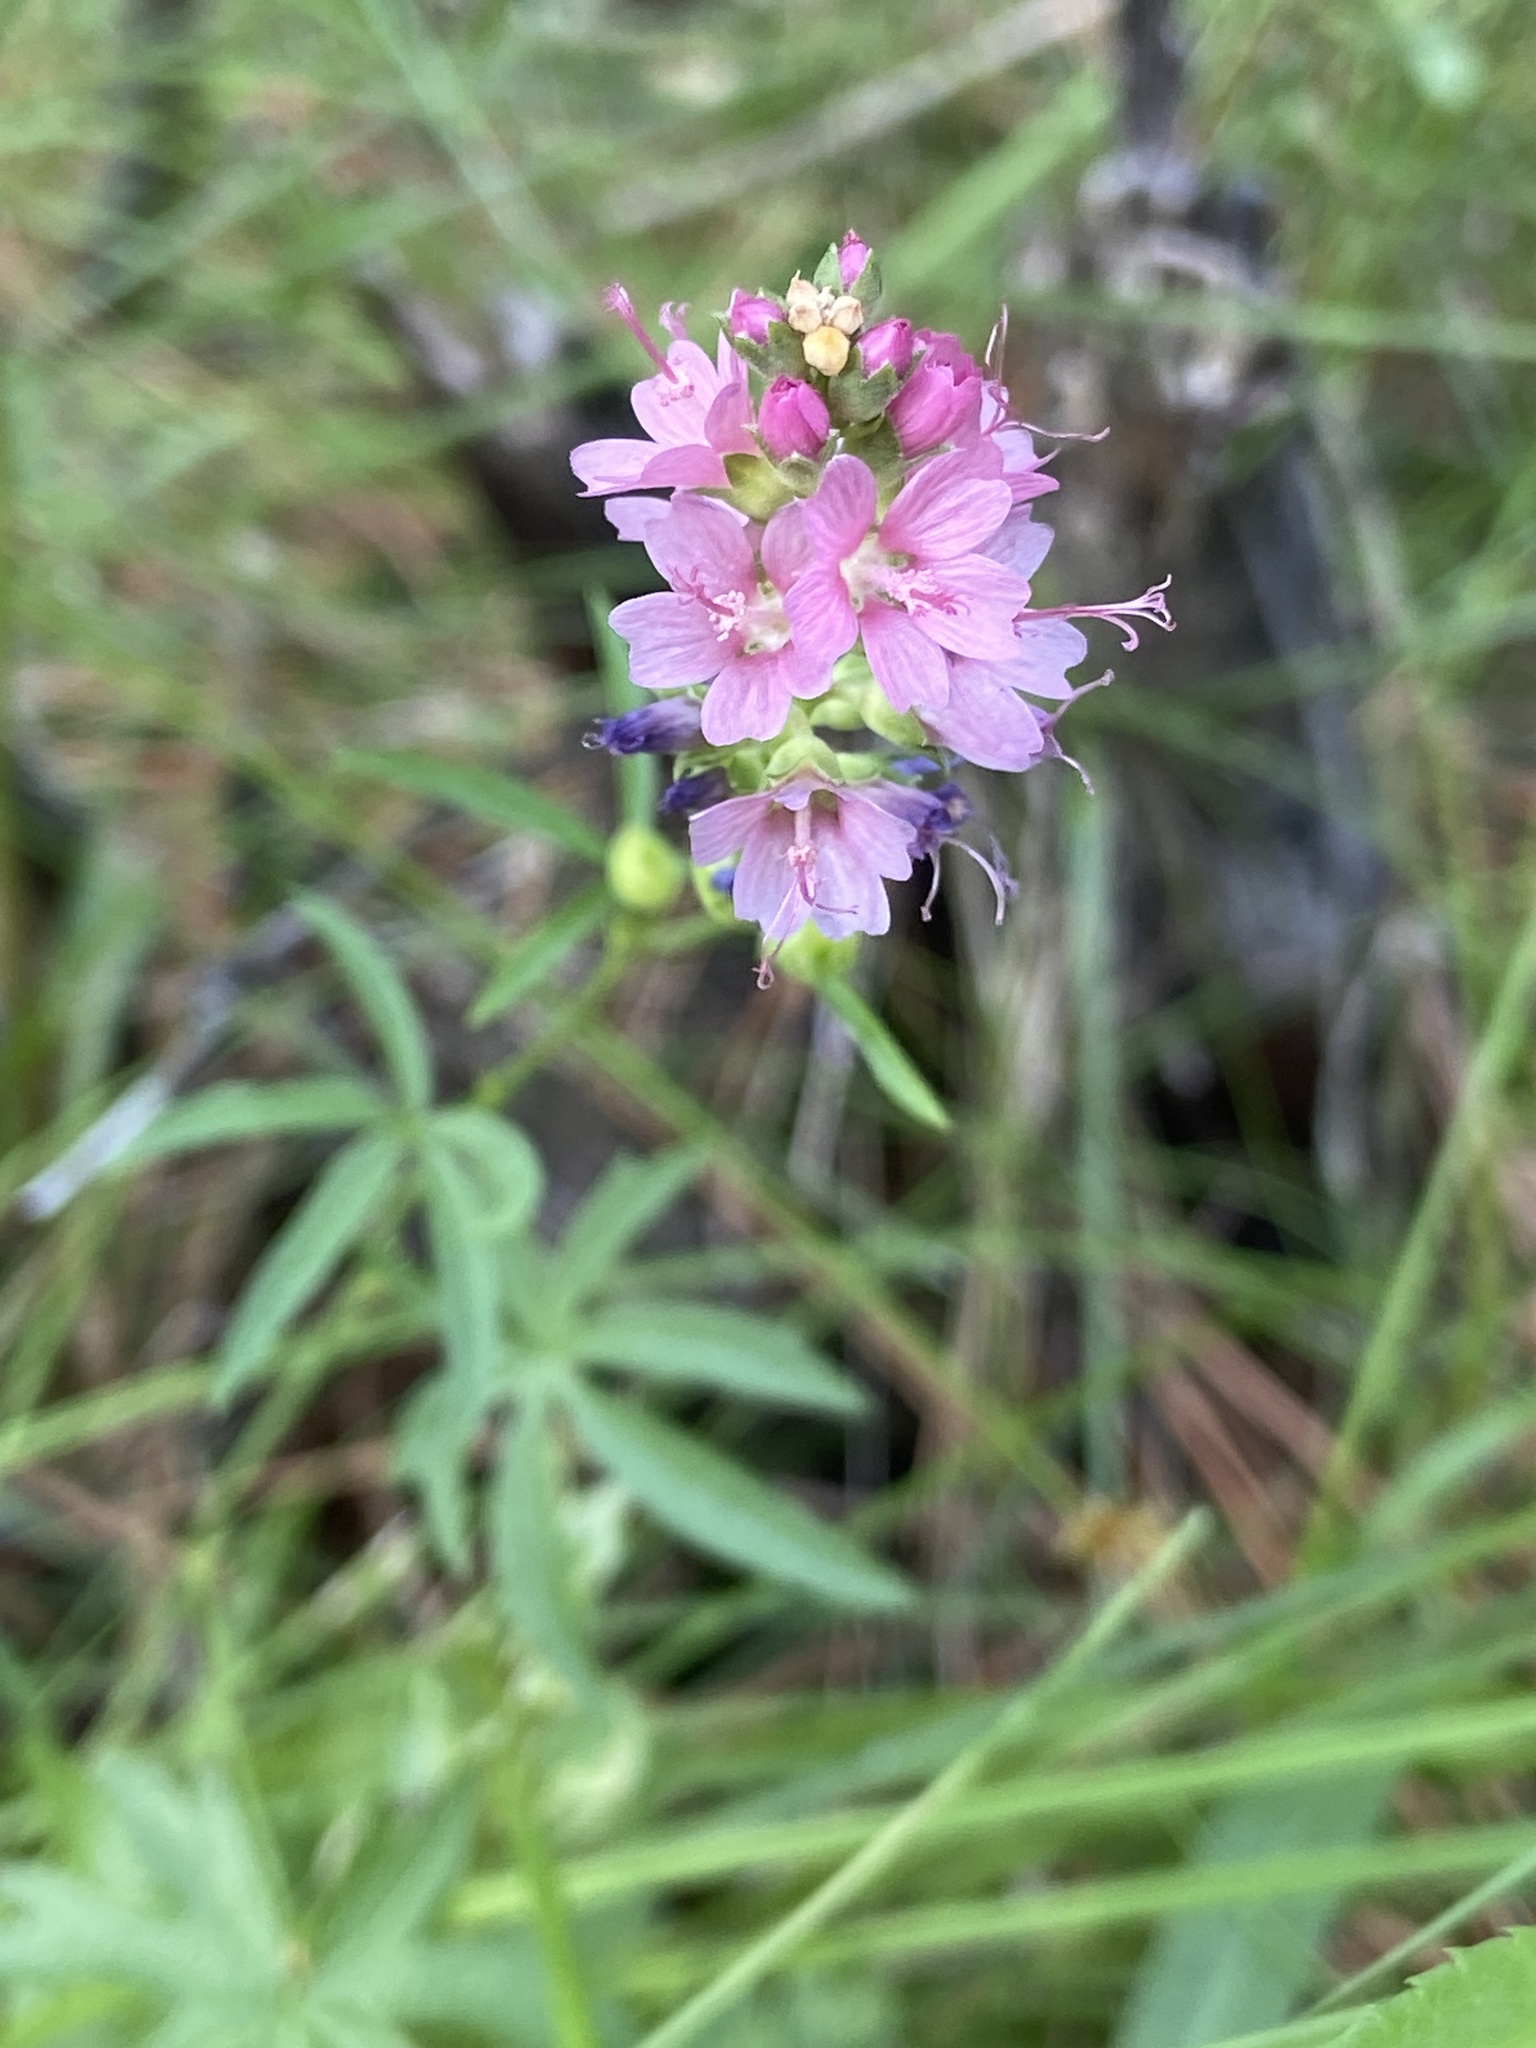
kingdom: Plantae
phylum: Tracheophyta
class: Magnoliopsida
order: Malvales
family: Malvaceae
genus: Sidalcea
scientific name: Sidalcea oregana
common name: Oregon checker-mallow
